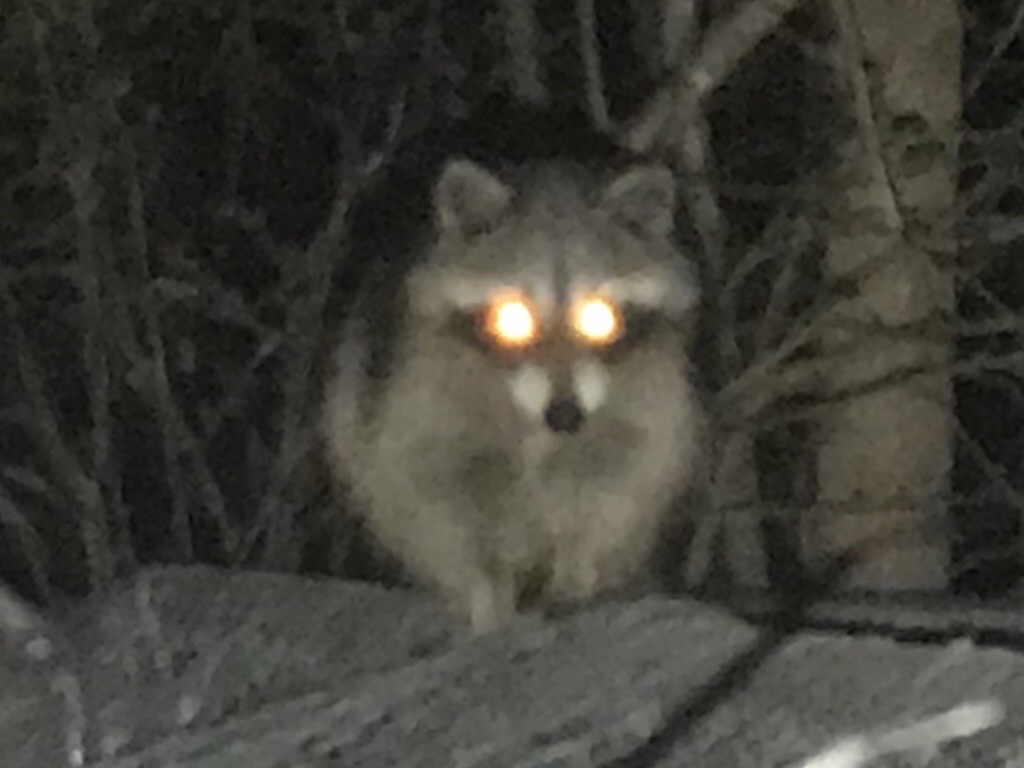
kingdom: Animalia
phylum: Chordata
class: Mammalia
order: Carnivora
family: Procyonidae
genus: Procyon
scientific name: Procyon lotor
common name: Raccoon
